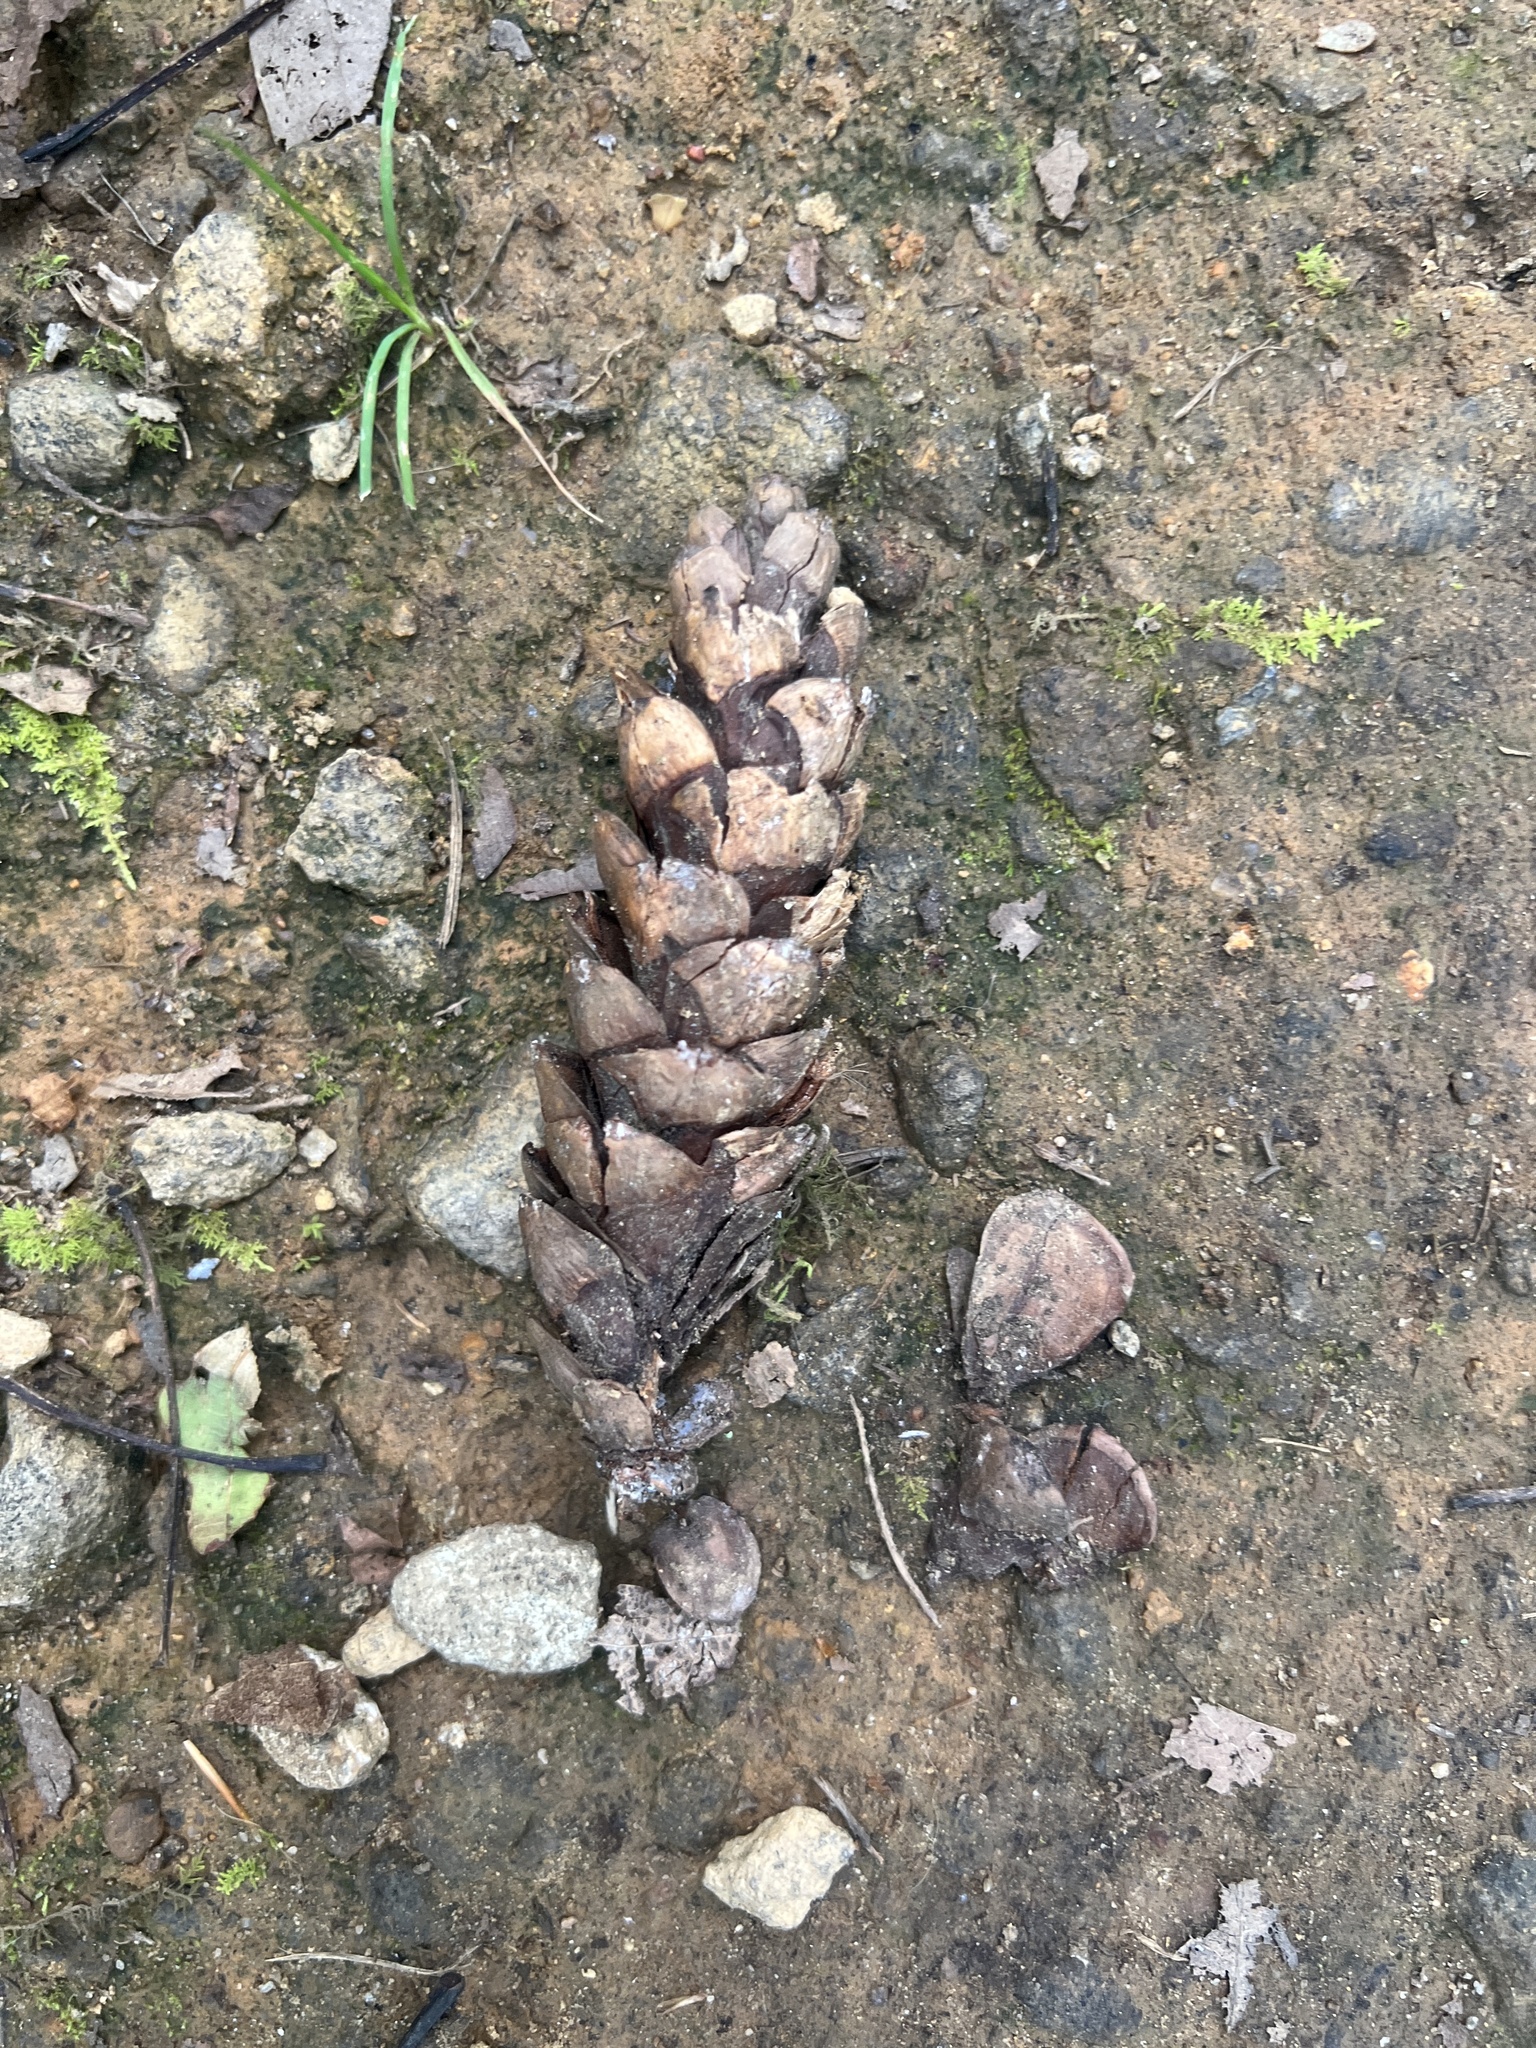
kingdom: Plantae
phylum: Tracheophyta
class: Pinopsida
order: Pinales
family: Pinaceae
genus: Pinus
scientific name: Pinus strobus
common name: Weymouth pine
